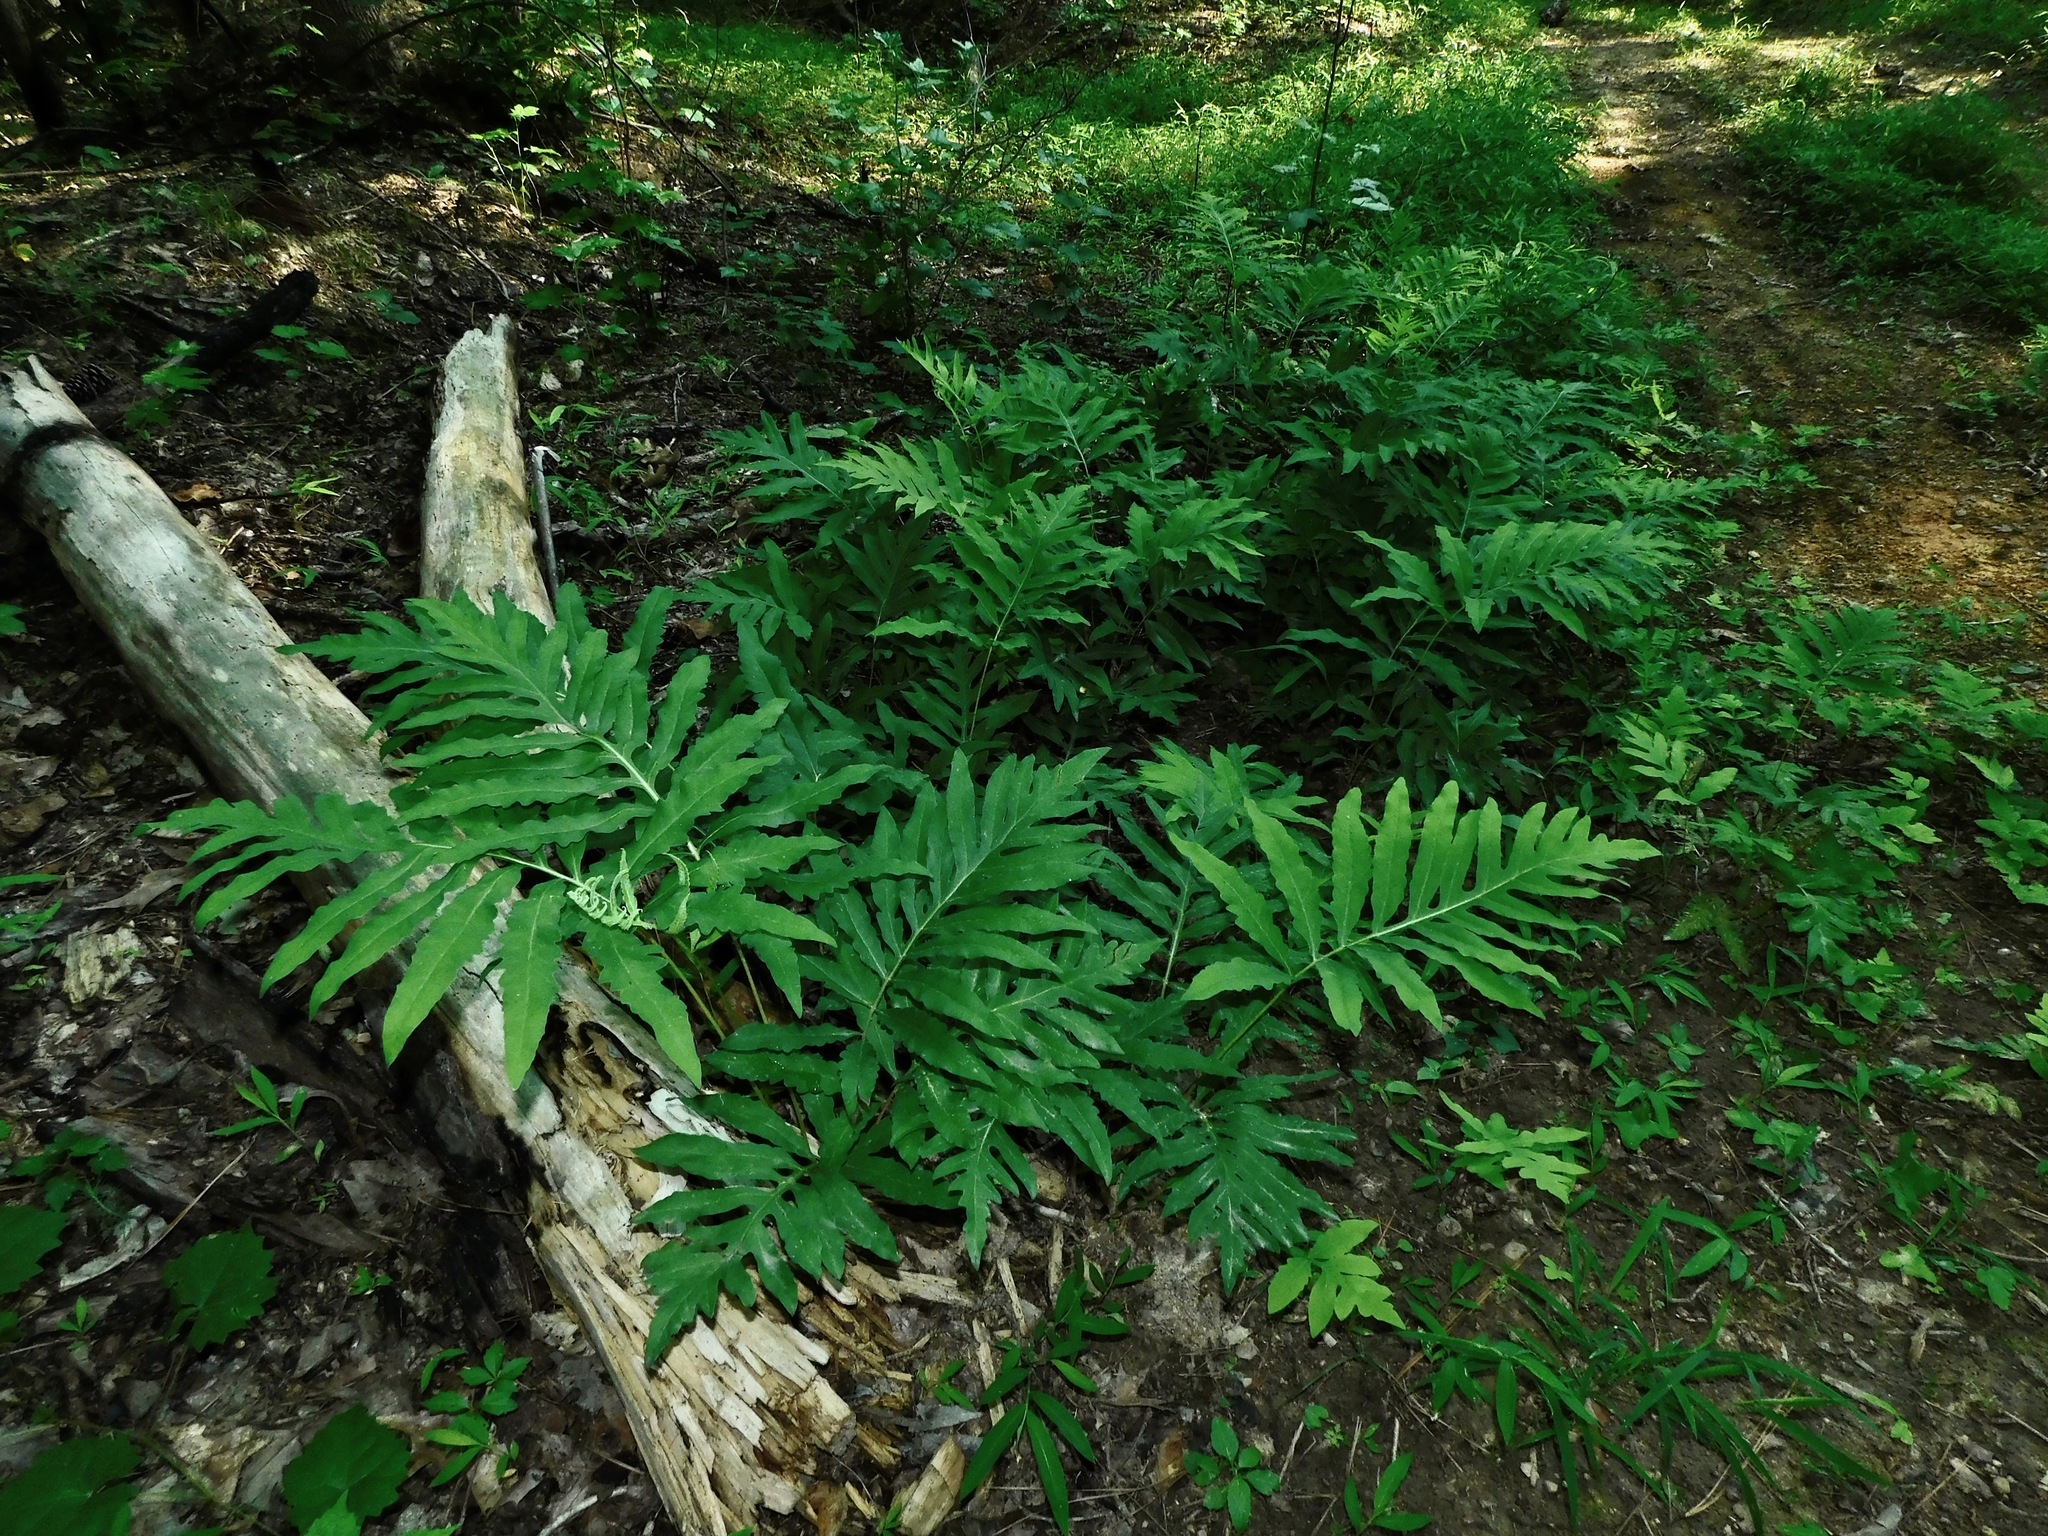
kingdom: Plantae
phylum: Tracheophyta
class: Polypodiopsida
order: Polypodiales
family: Onocleaceae
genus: Onoclea
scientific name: Onoclea sensibilis
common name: Sensitive fern
